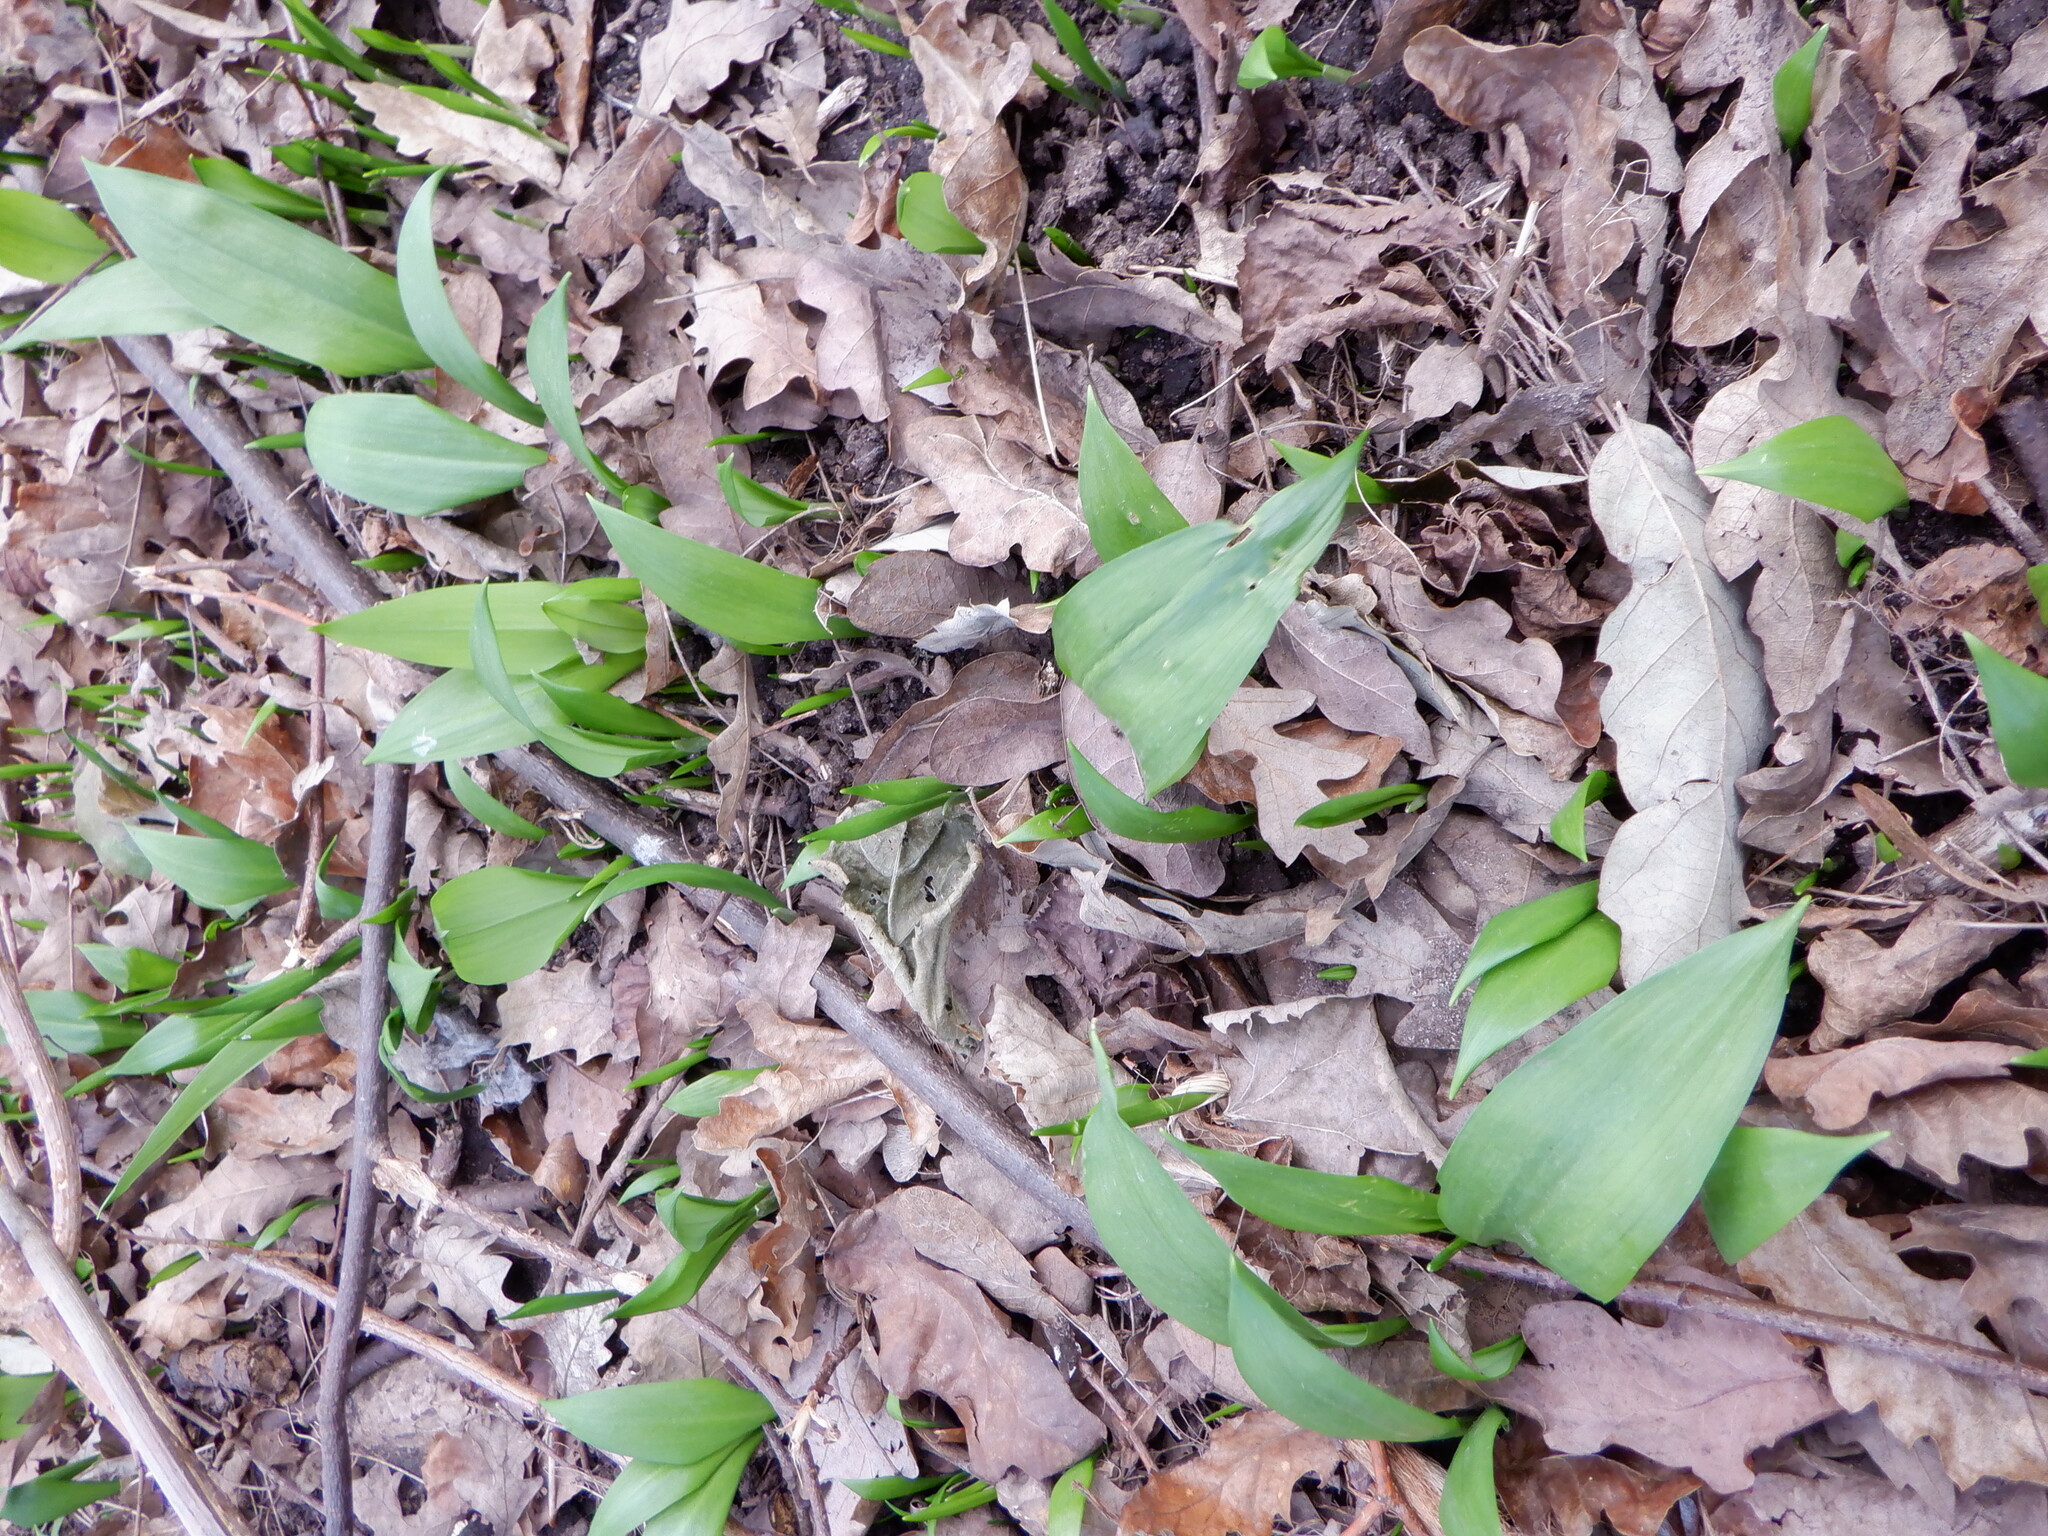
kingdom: Plantae
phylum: Tracheophyta
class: Liliopsida
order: Asparagales
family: Amaryllidaceae
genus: Allium
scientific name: Allium ursinum
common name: Ramsons
